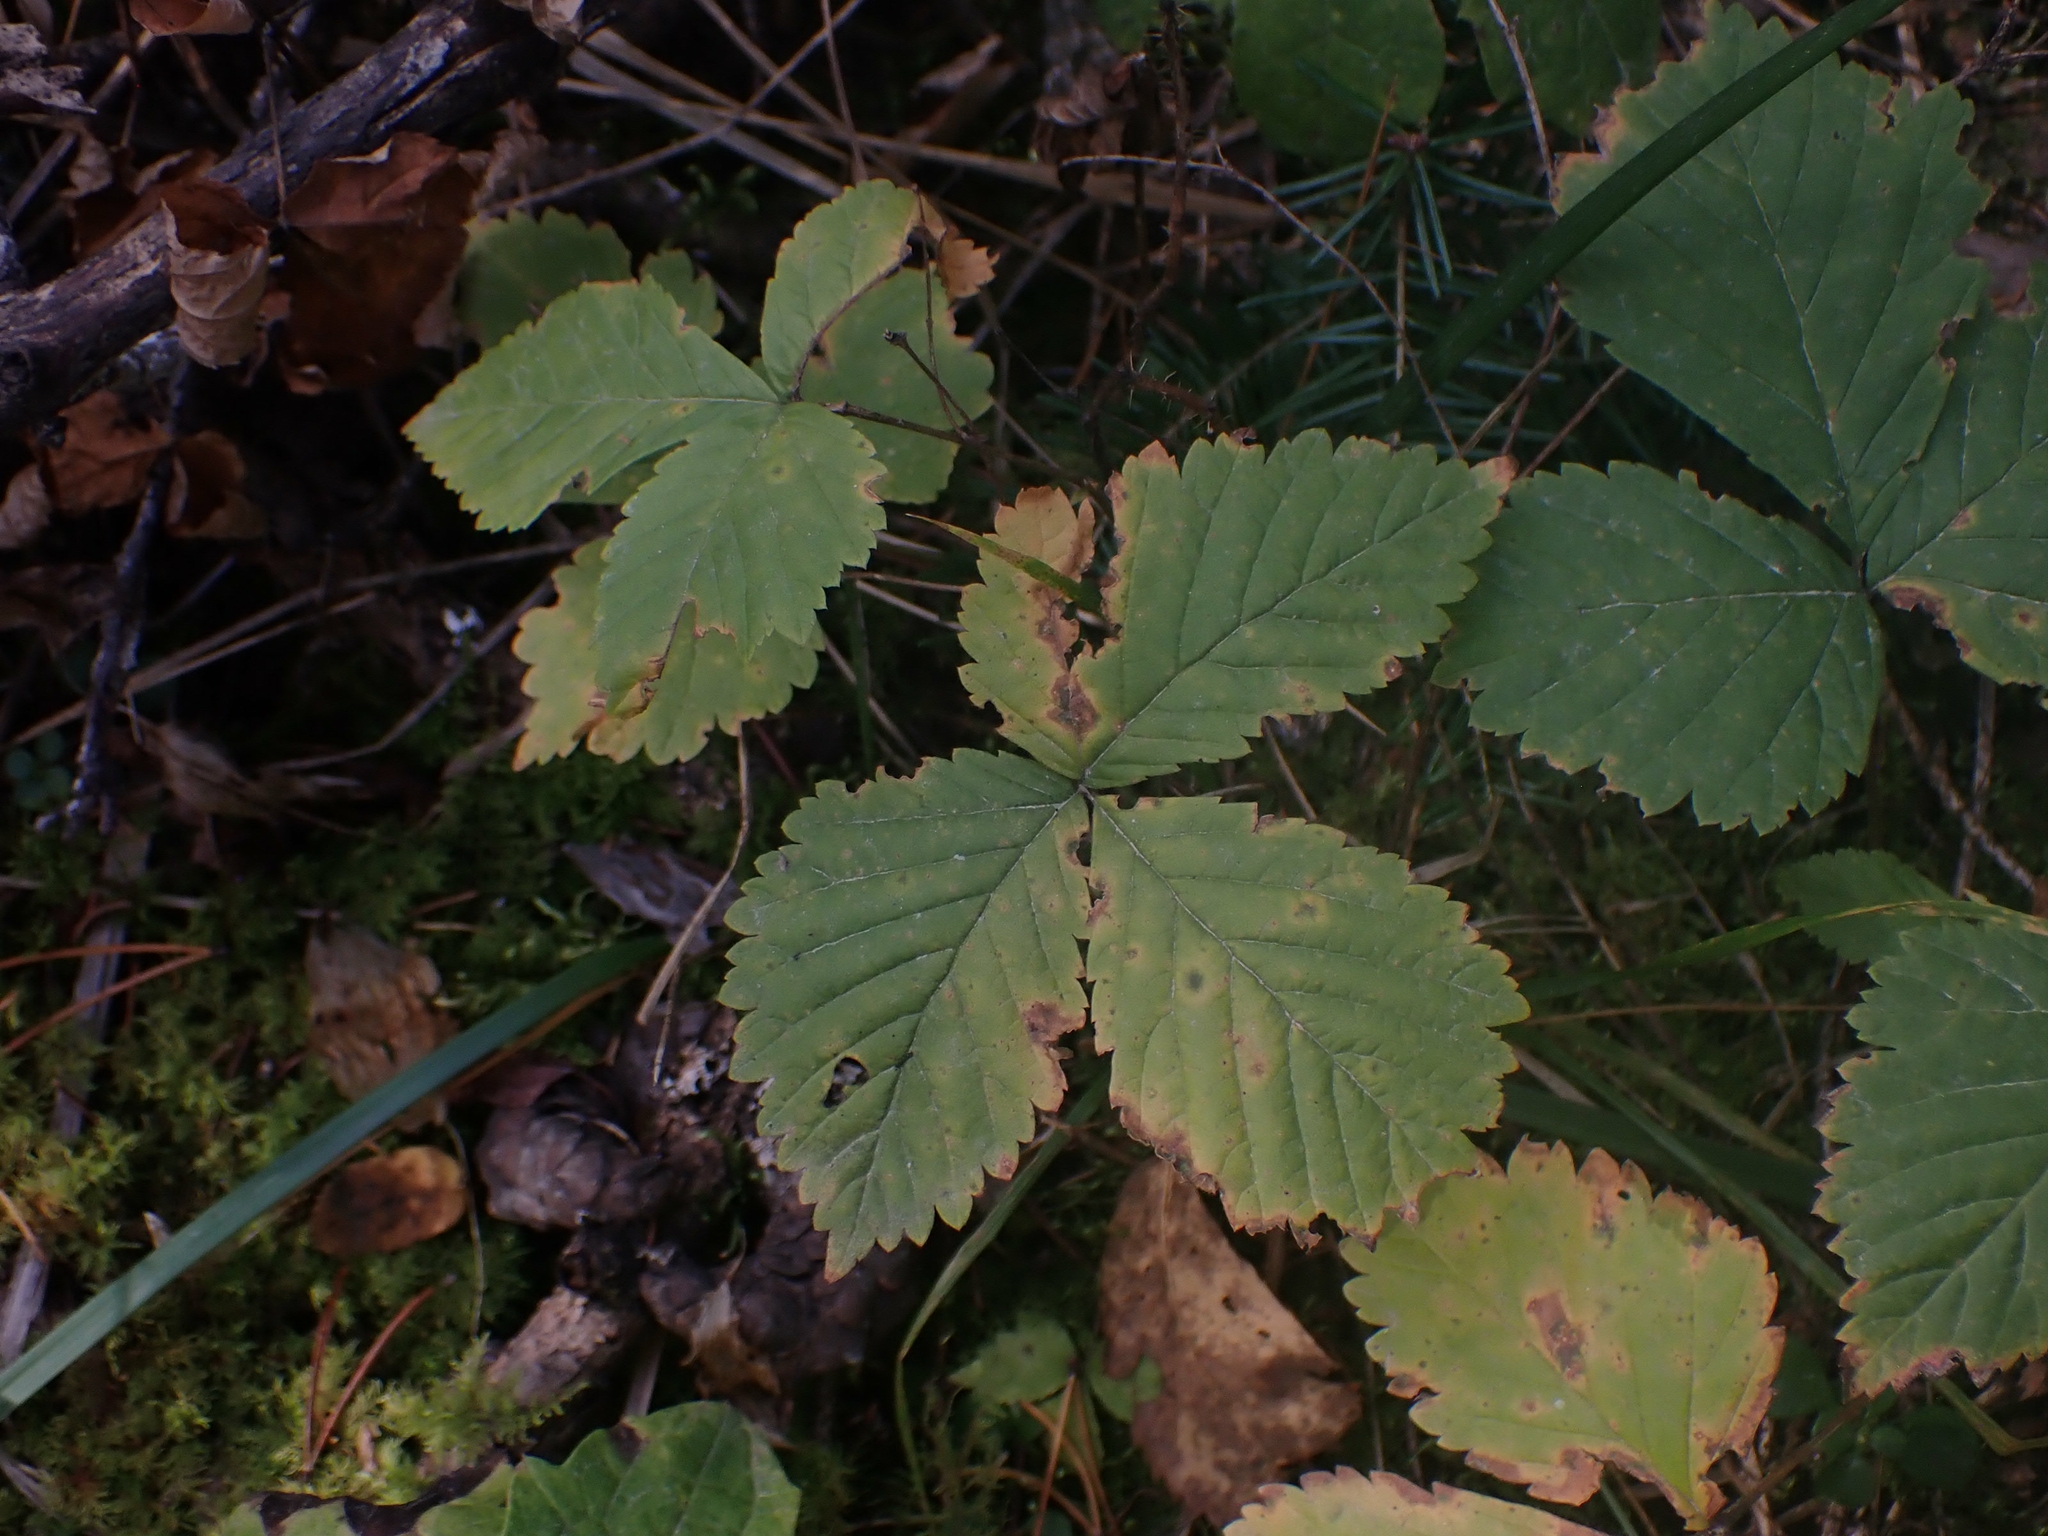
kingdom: Plantae
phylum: Tracheophyta
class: Magnoliopsida
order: Rosales
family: Rosaceae
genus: Rubus
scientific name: Rubus pubescens
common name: Dwarf raspberry
